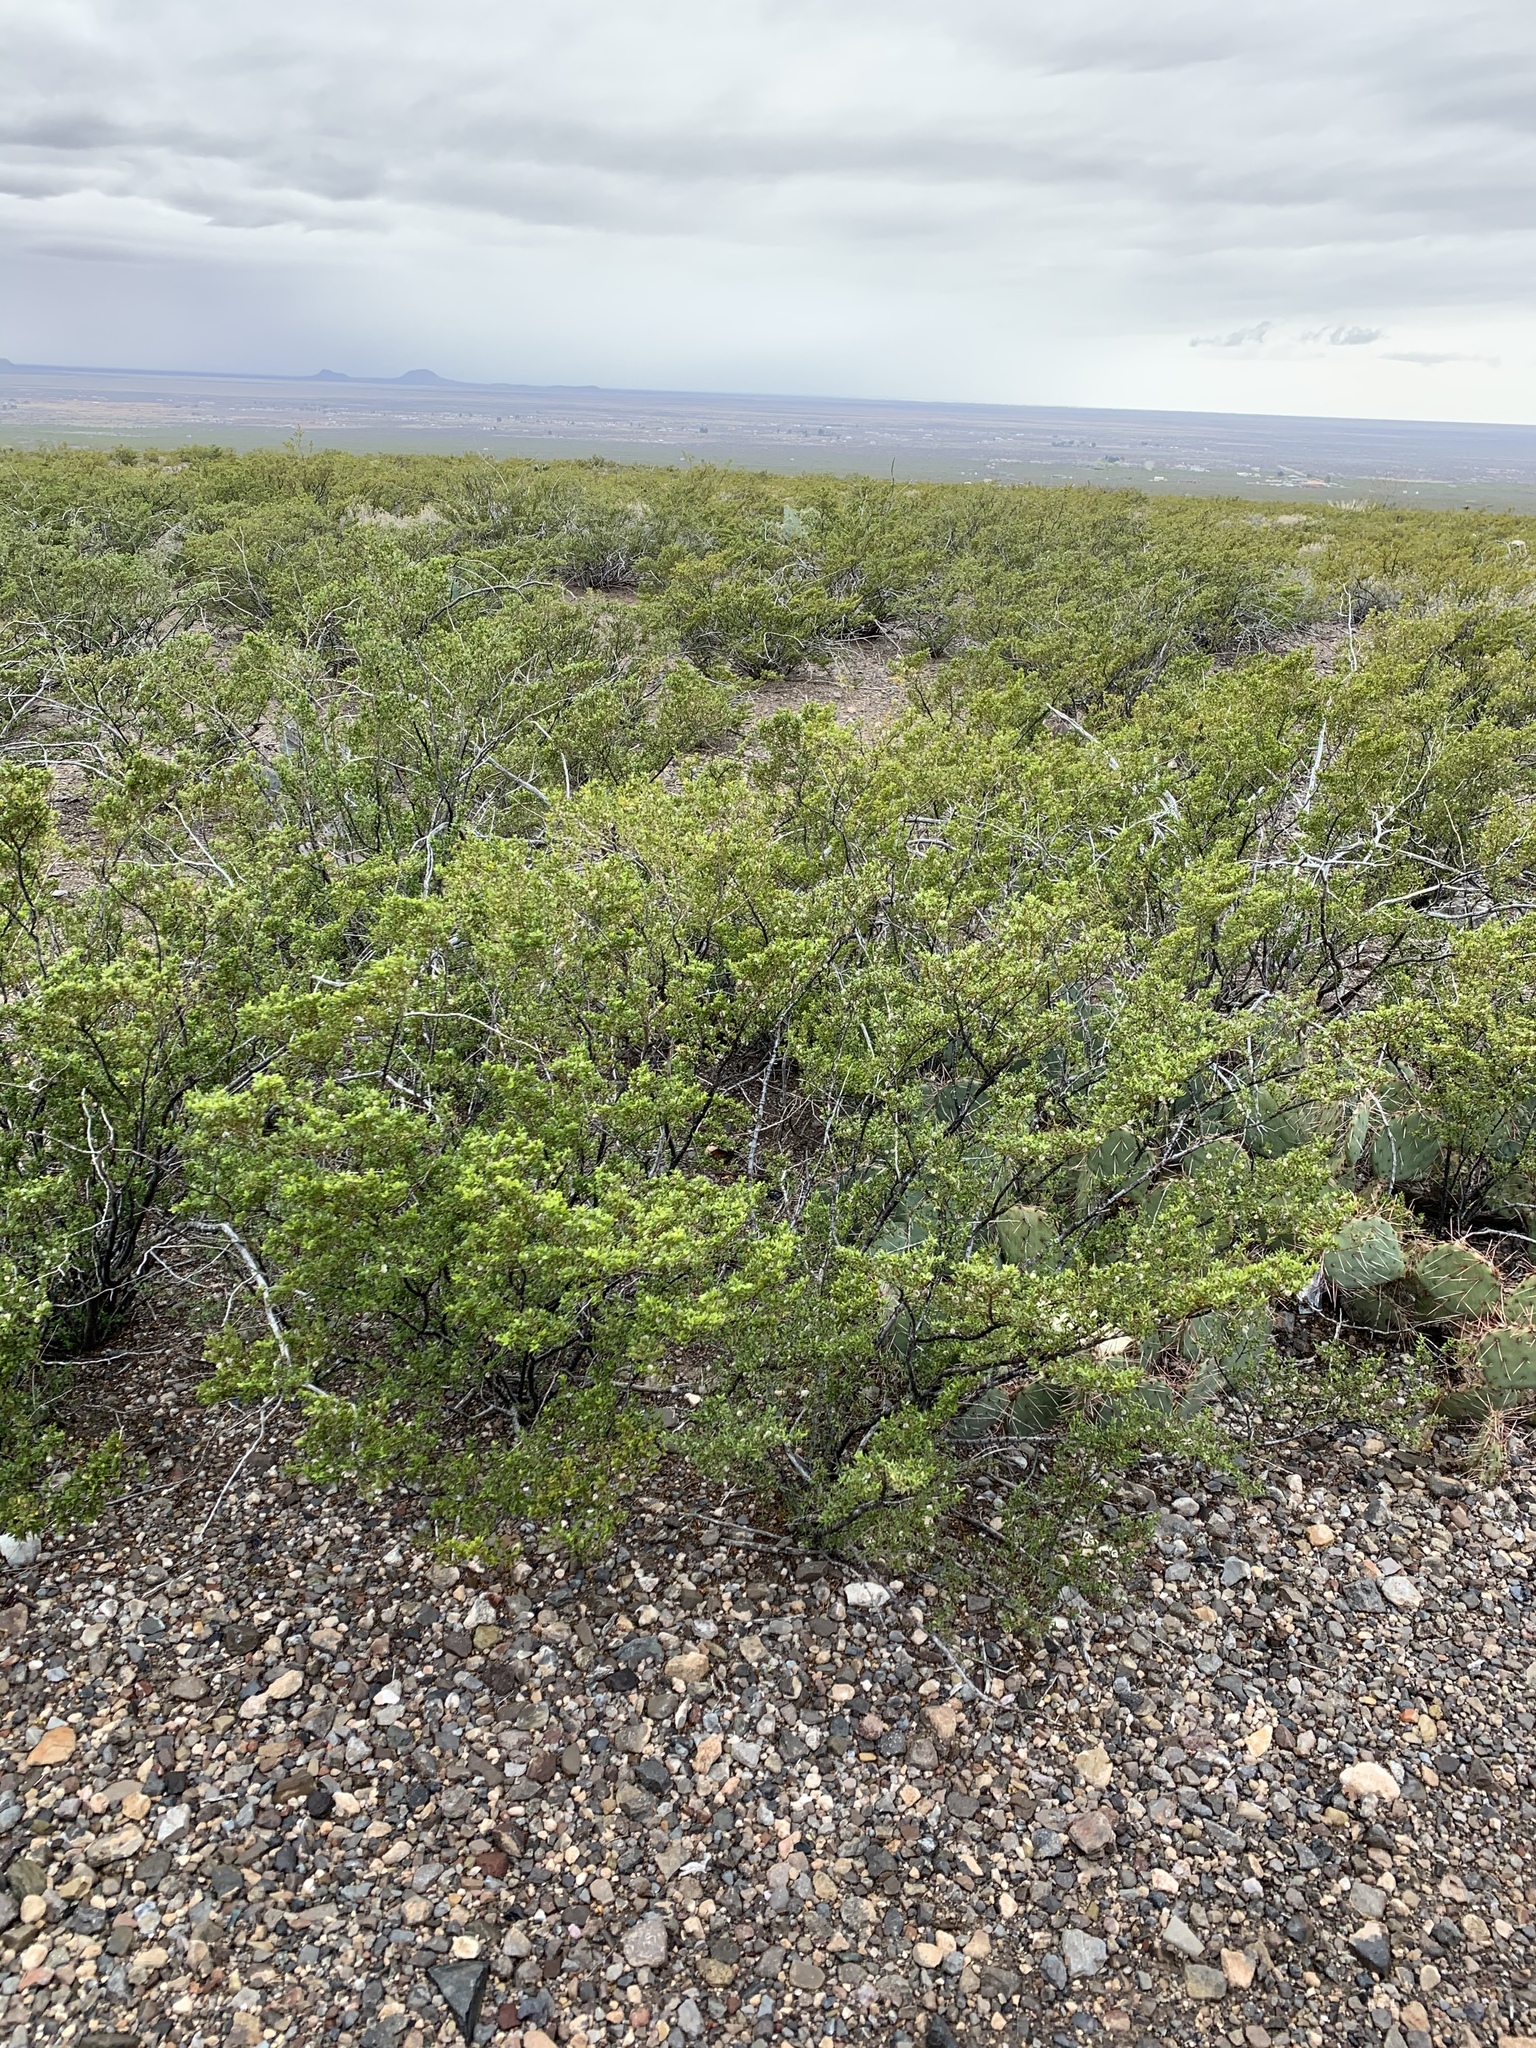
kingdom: Plantae
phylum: Tracheophyta
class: Magnoliopsida
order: Zygophyllales
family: Zygophyllaceae
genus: Larrea
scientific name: Larrea tridentata
